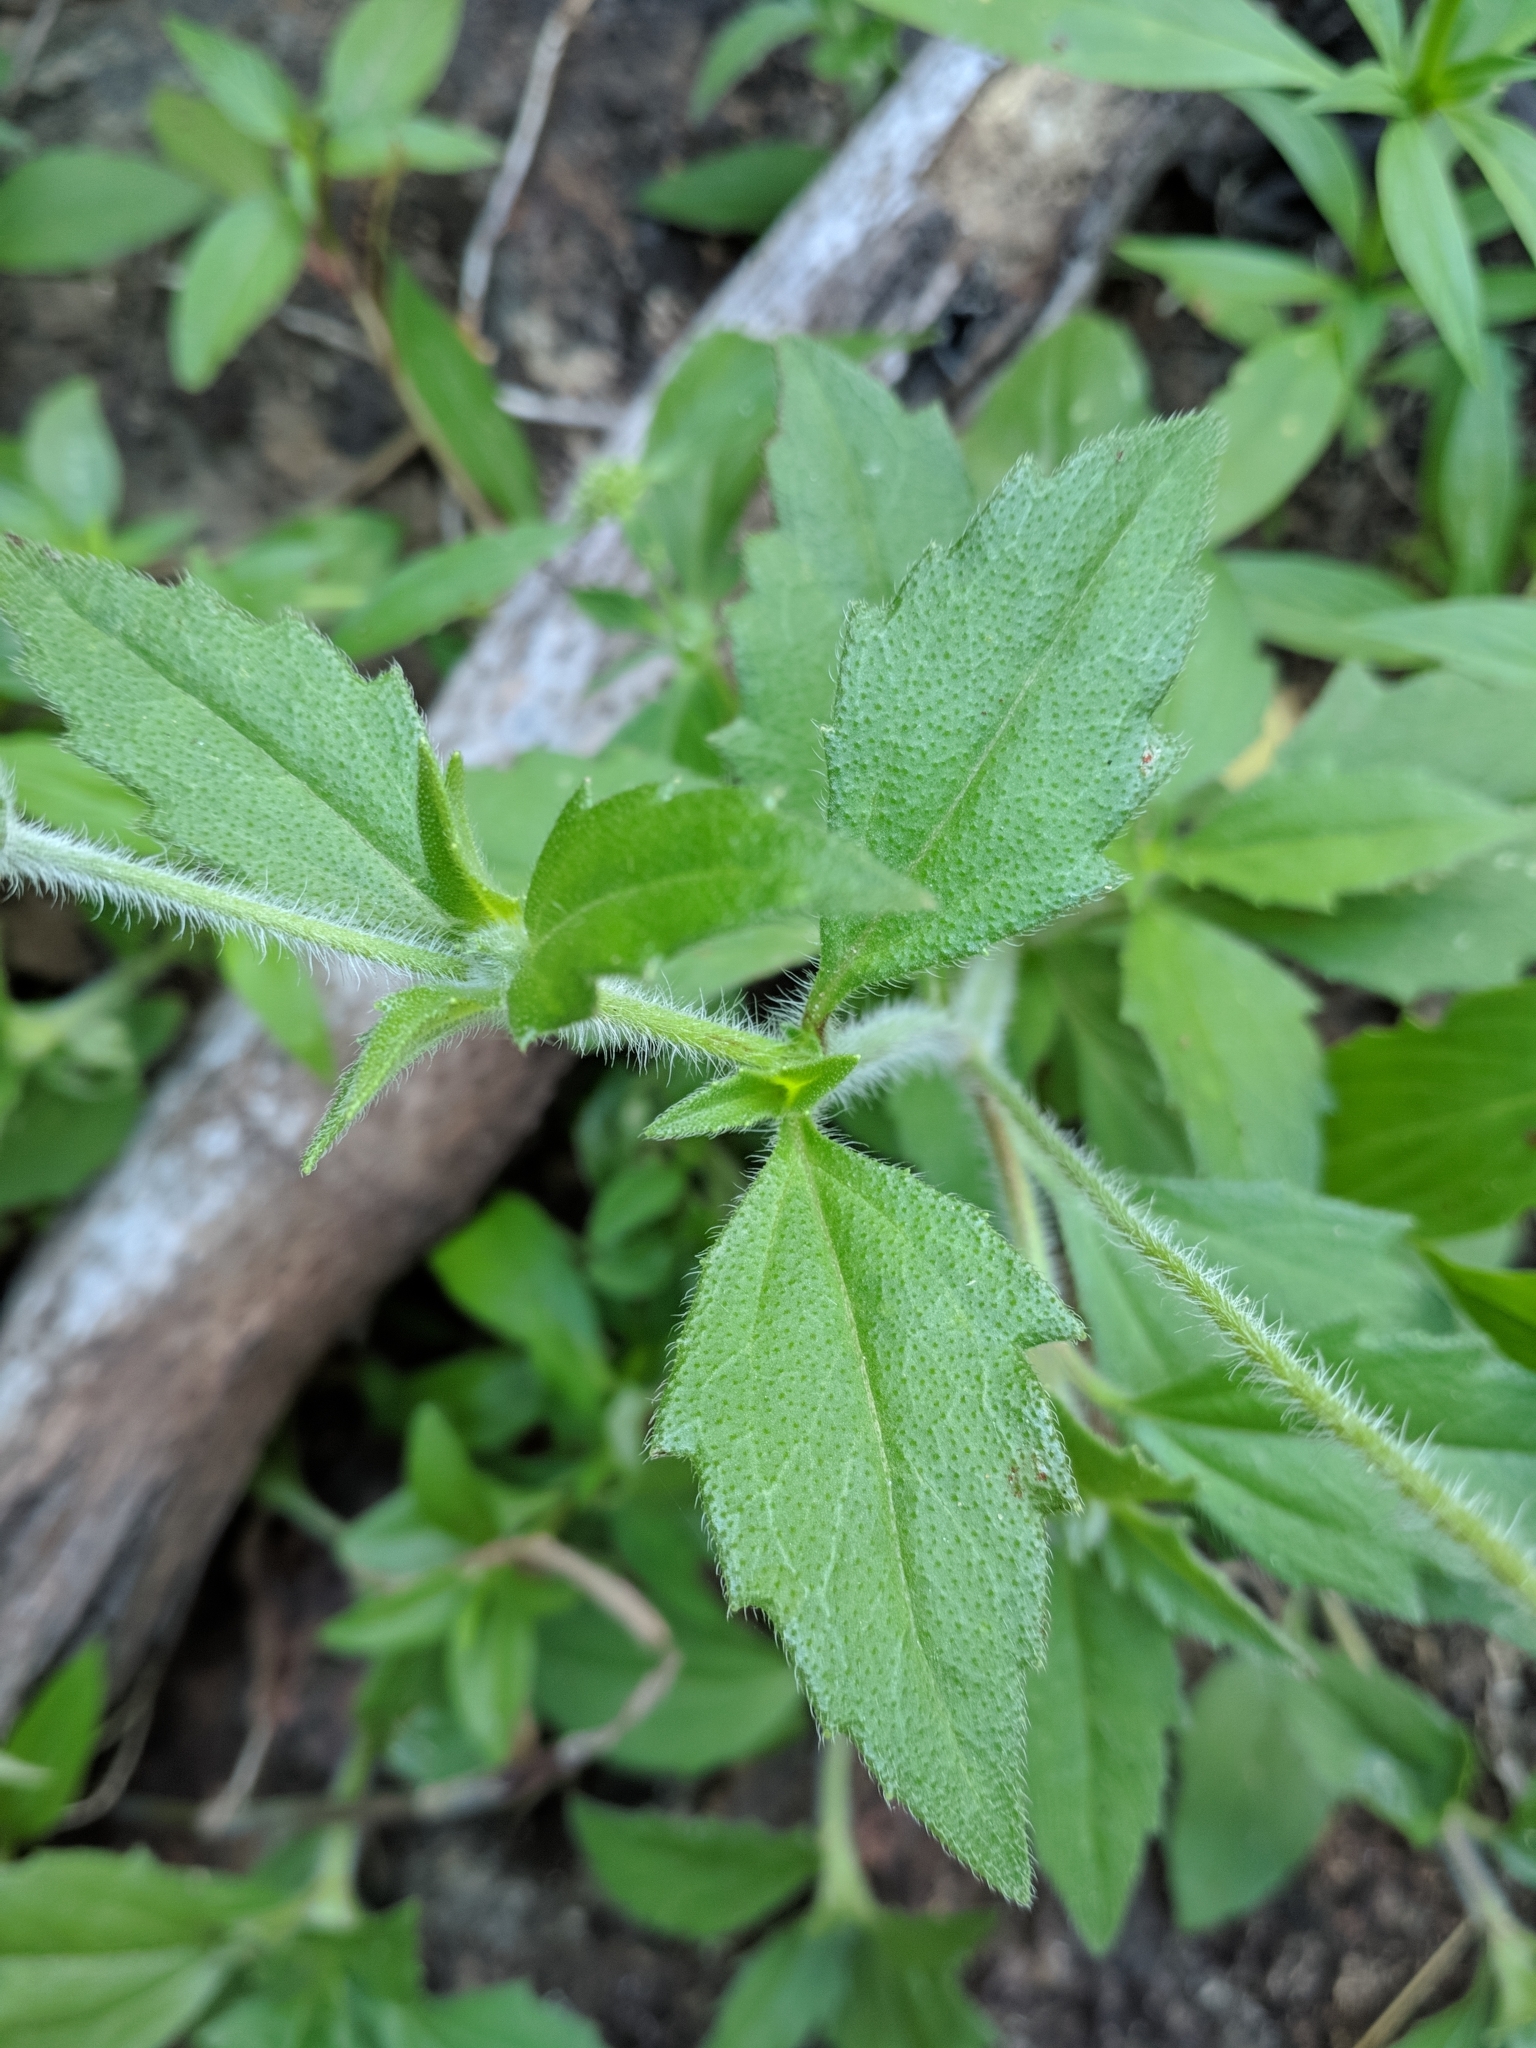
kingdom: Plantae
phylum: Tracheophyta
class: Magnoliopsida
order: Asterales
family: Asteraceae
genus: Tridax
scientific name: Tridax procumbens
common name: Coatbuttons
